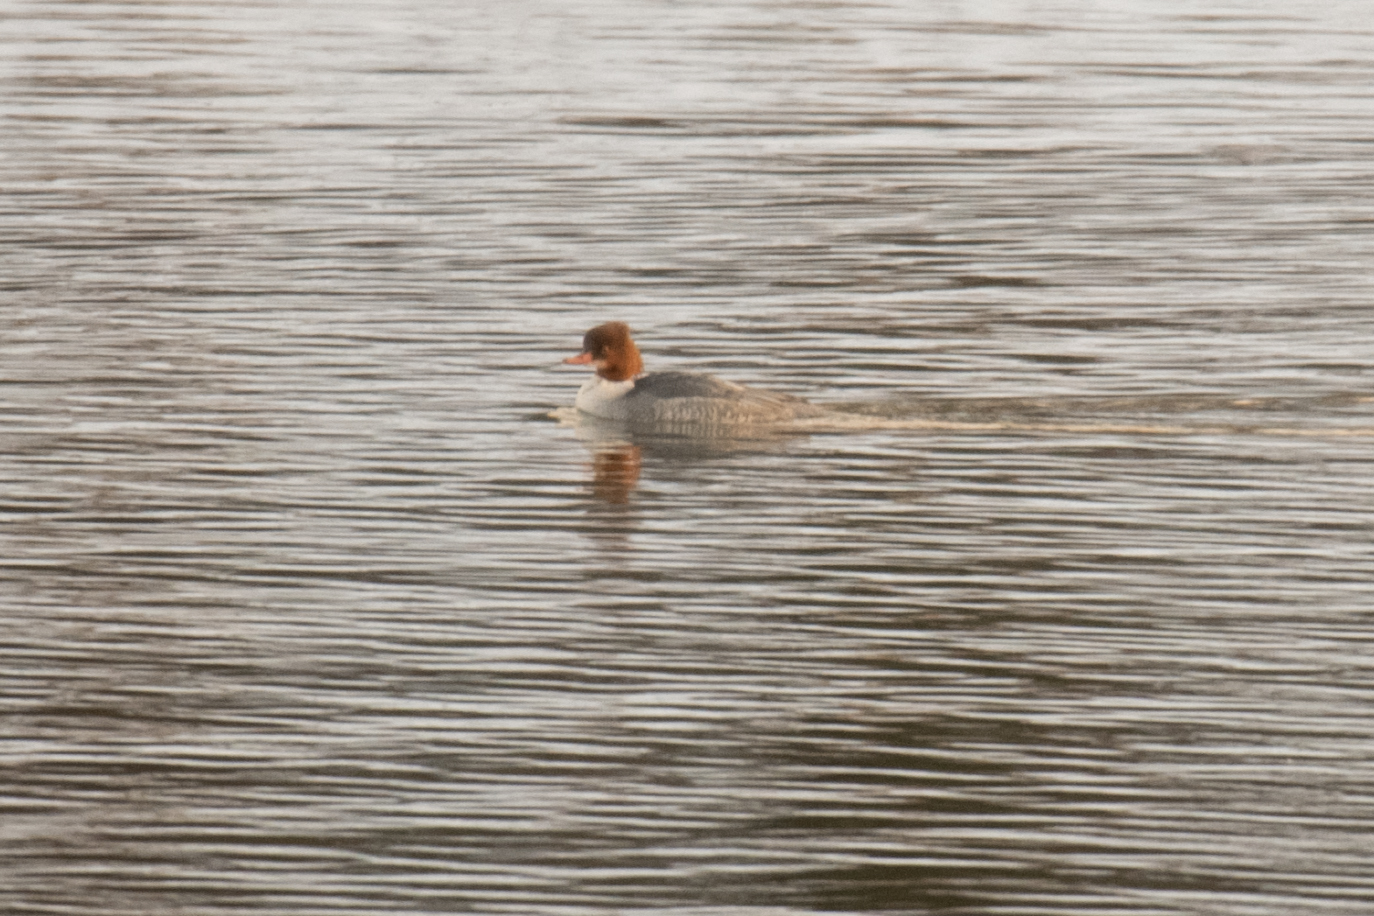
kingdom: Animalia
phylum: Chordata
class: Aves
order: Anseriformes
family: Anatidae
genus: Mergus
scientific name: Mergus merganser
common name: Common merganser
